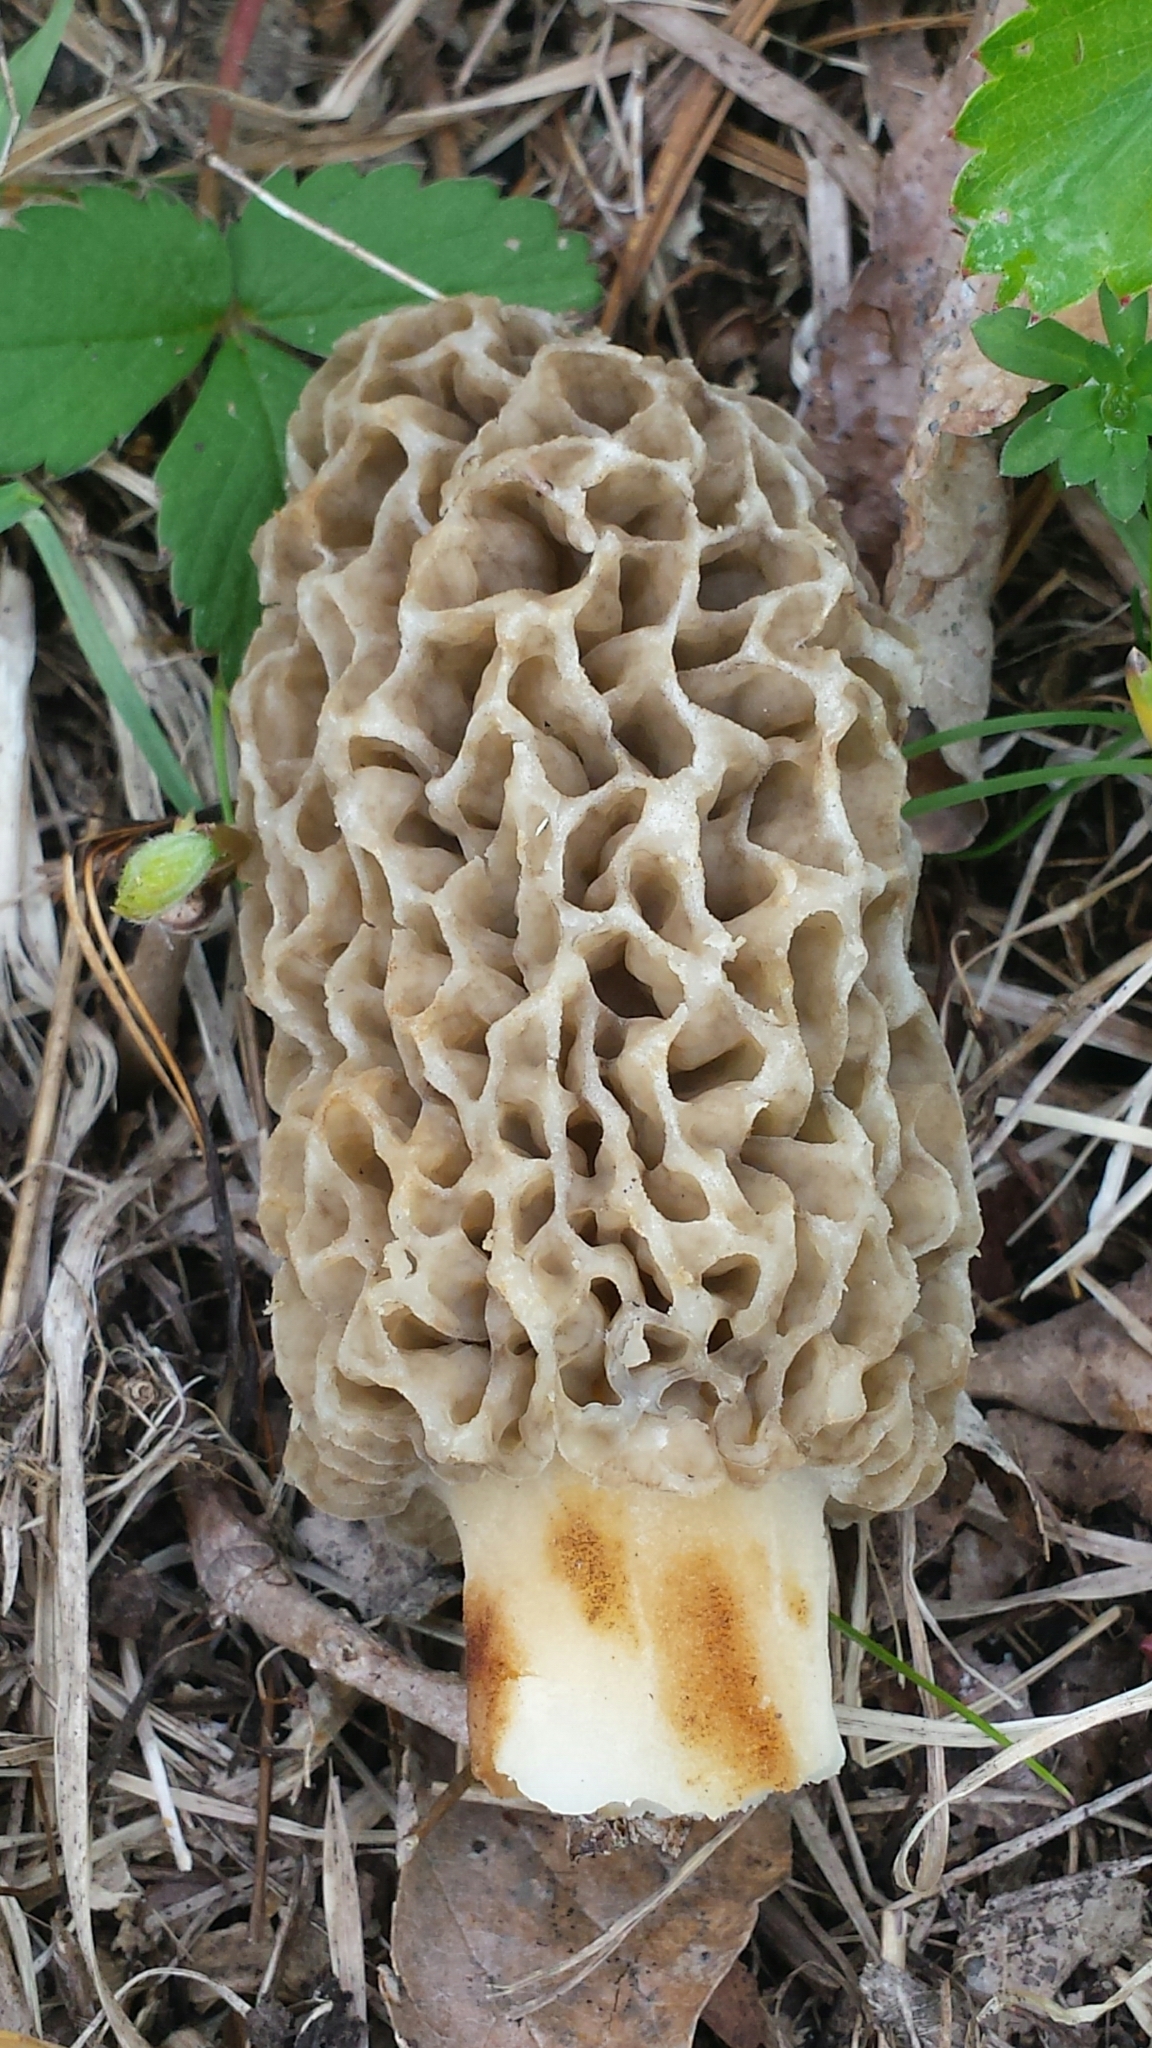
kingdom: Fungi
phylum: Ascomycota
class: Pezizomycetes
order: Pezizales
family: Morchellaceae
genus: Morchella
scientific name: Morchella americana
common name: White morel
